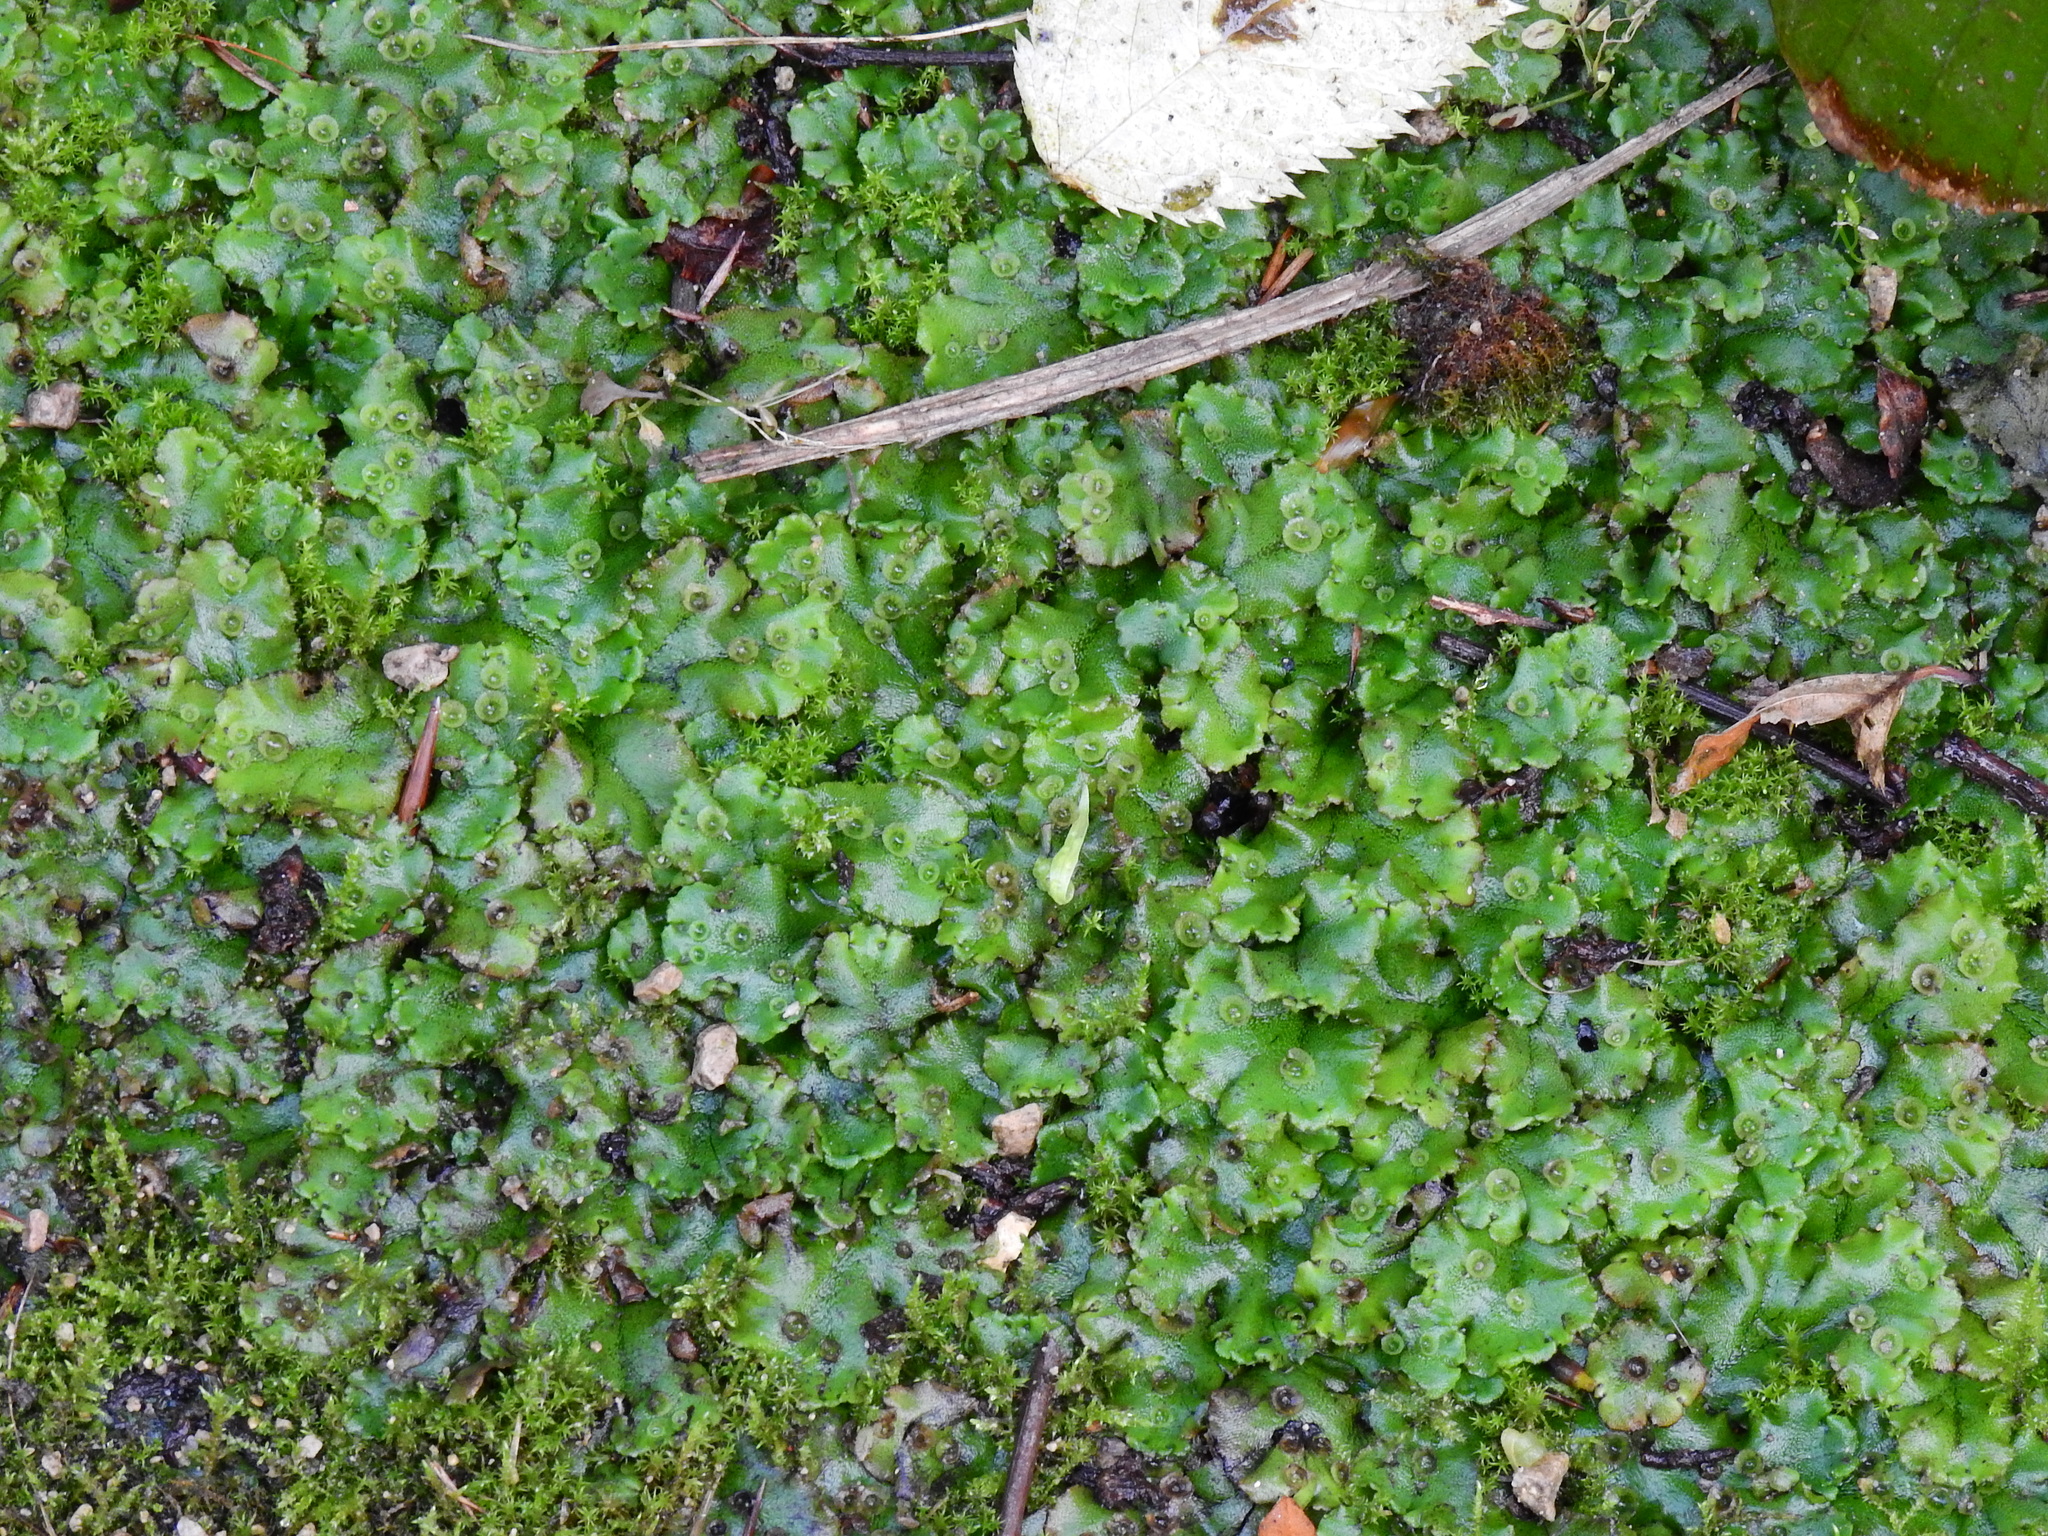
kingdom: Plantae
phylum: Marchantiophyta
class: Marchantiopsida
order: Marchantiales
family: Marchantiaceae
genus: Marchantia
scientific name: Marchantia polymorpha
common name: Common liverwort
